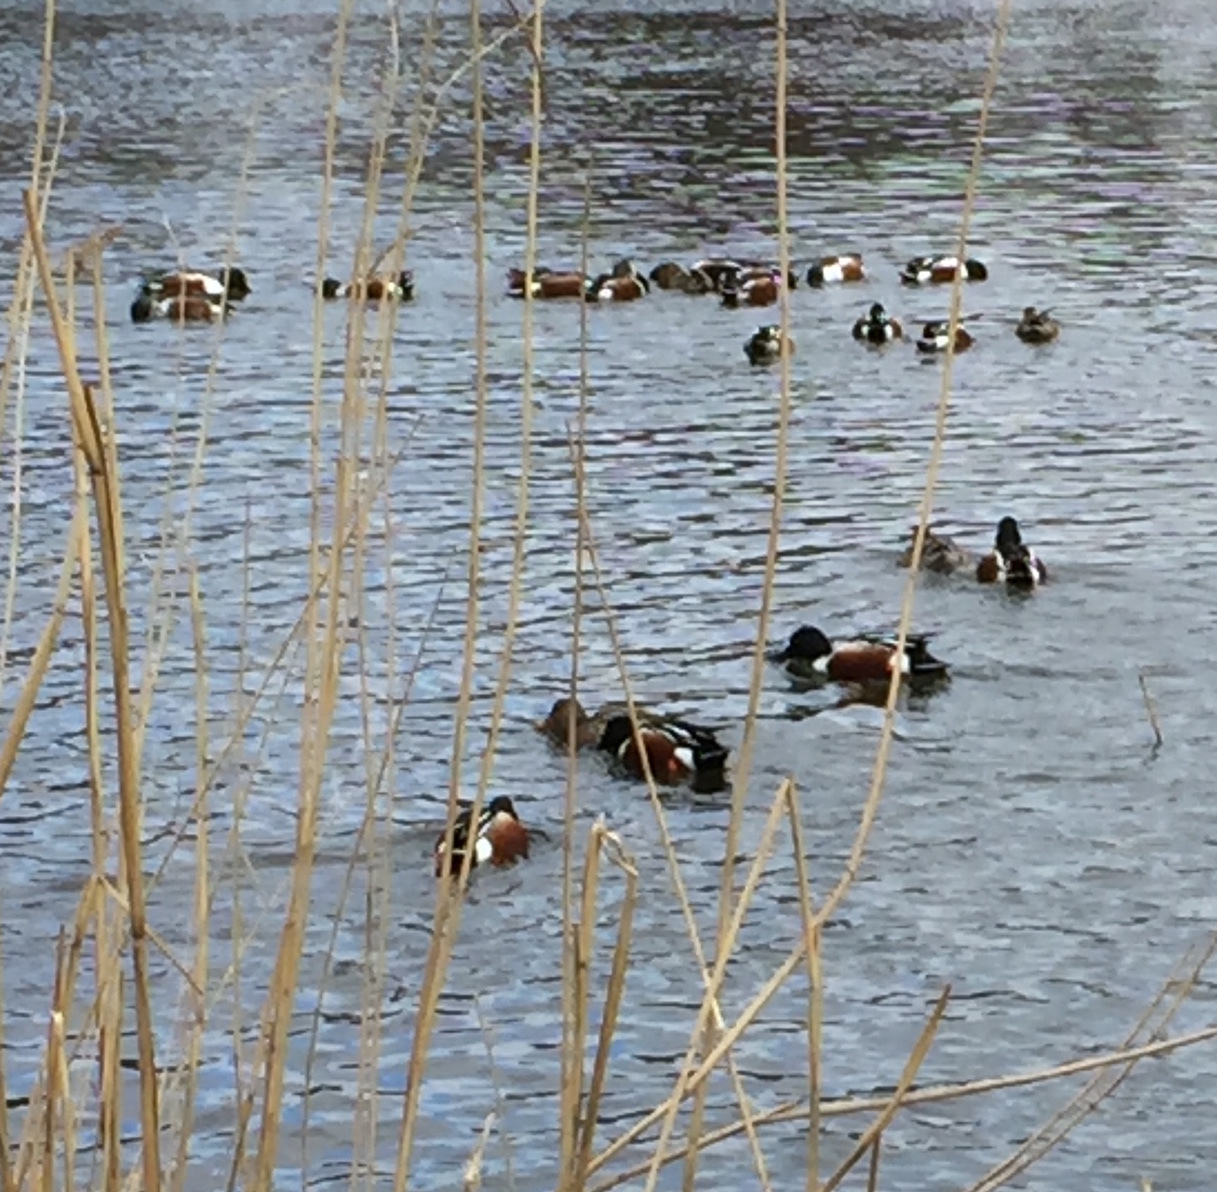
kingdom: Animalia
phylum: Chordata
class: Aves
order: Anseriformes
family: Anatidae
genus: Spatula
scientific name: Spatula clypeata
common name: Northern shoveler
